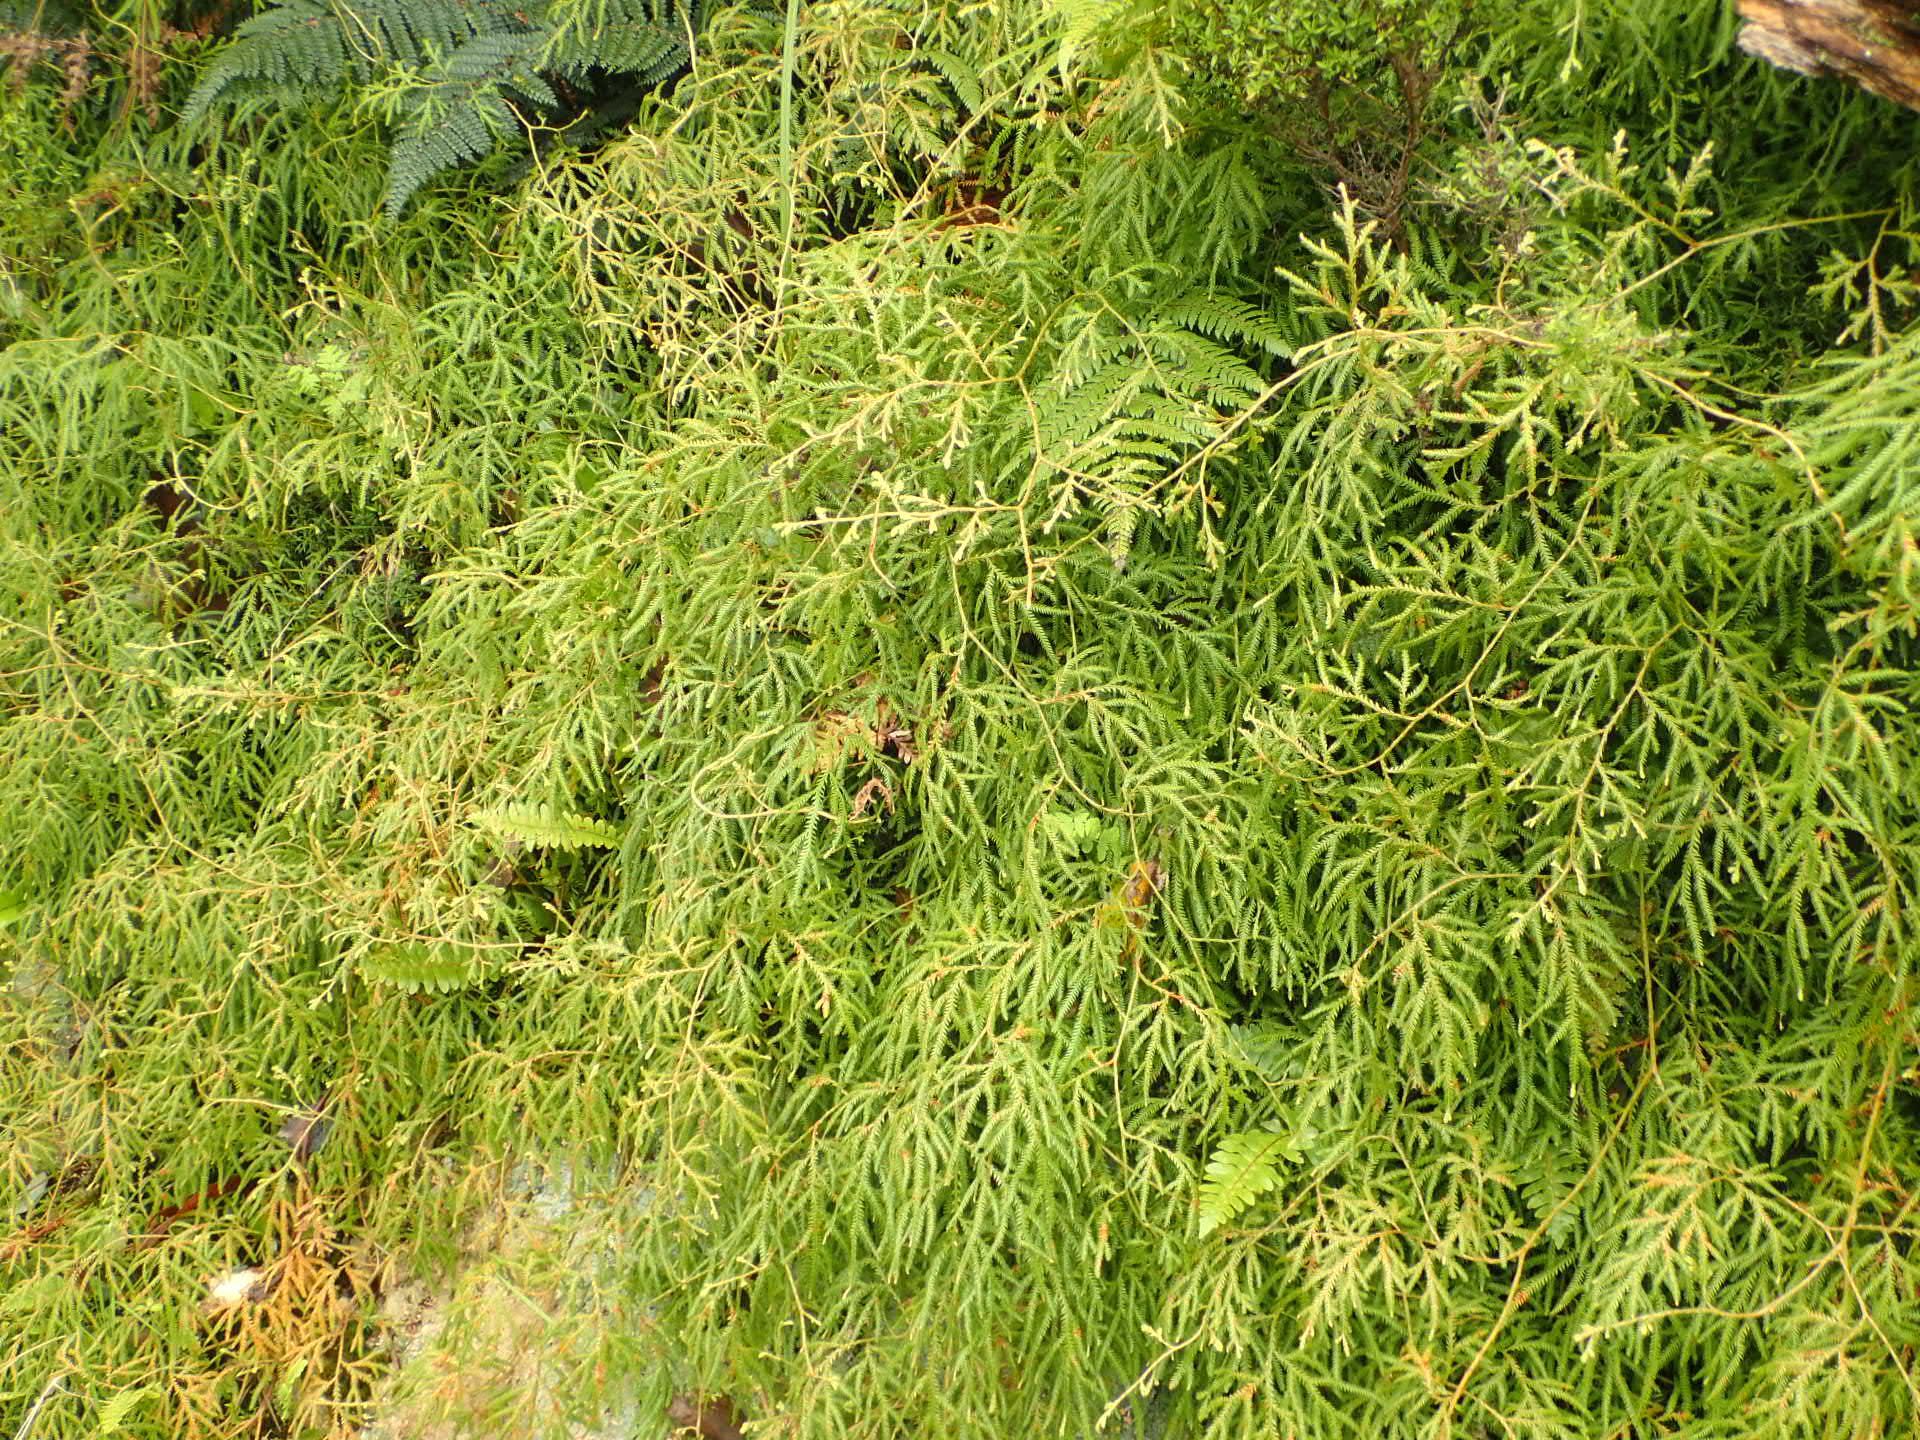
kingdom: Plantae
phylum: Tracheophyta
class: Lycopodiopsida
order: Lycopodiales
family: Lycopodiaceae
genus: Lycopodium
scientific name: Lycopodium volubile
